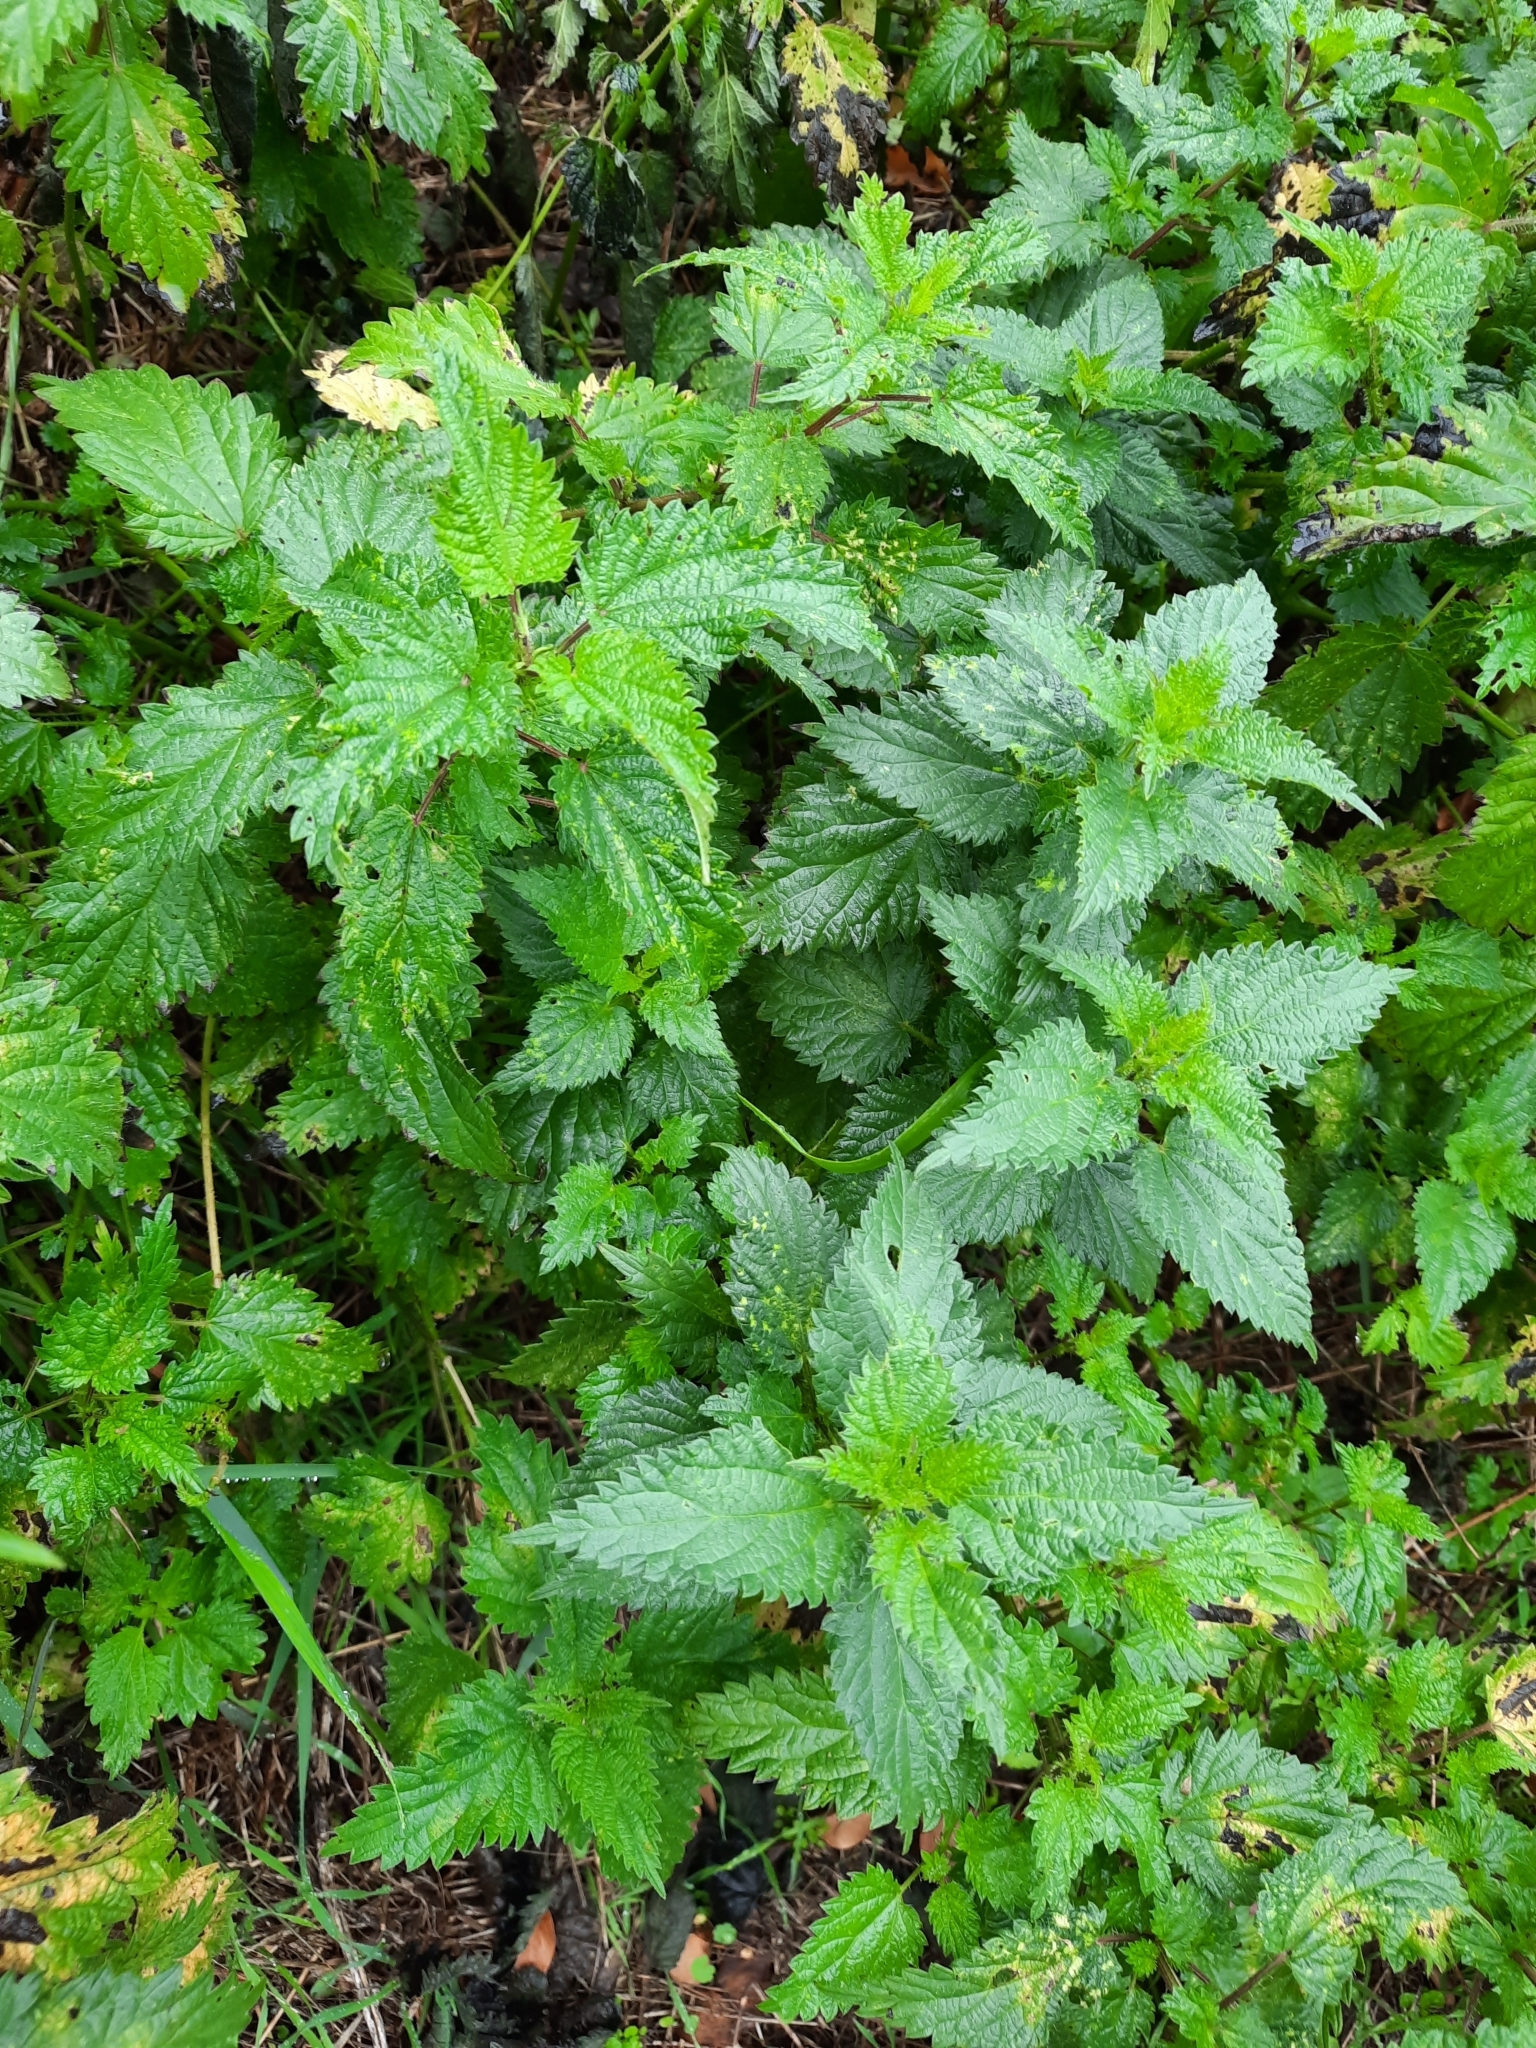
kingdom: Plantae
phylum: Tracheophyta
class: Magnoliopsida
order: Rosales
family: Urticaceae
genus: Urtica
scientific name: Urtica dioica
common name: Common nettle
